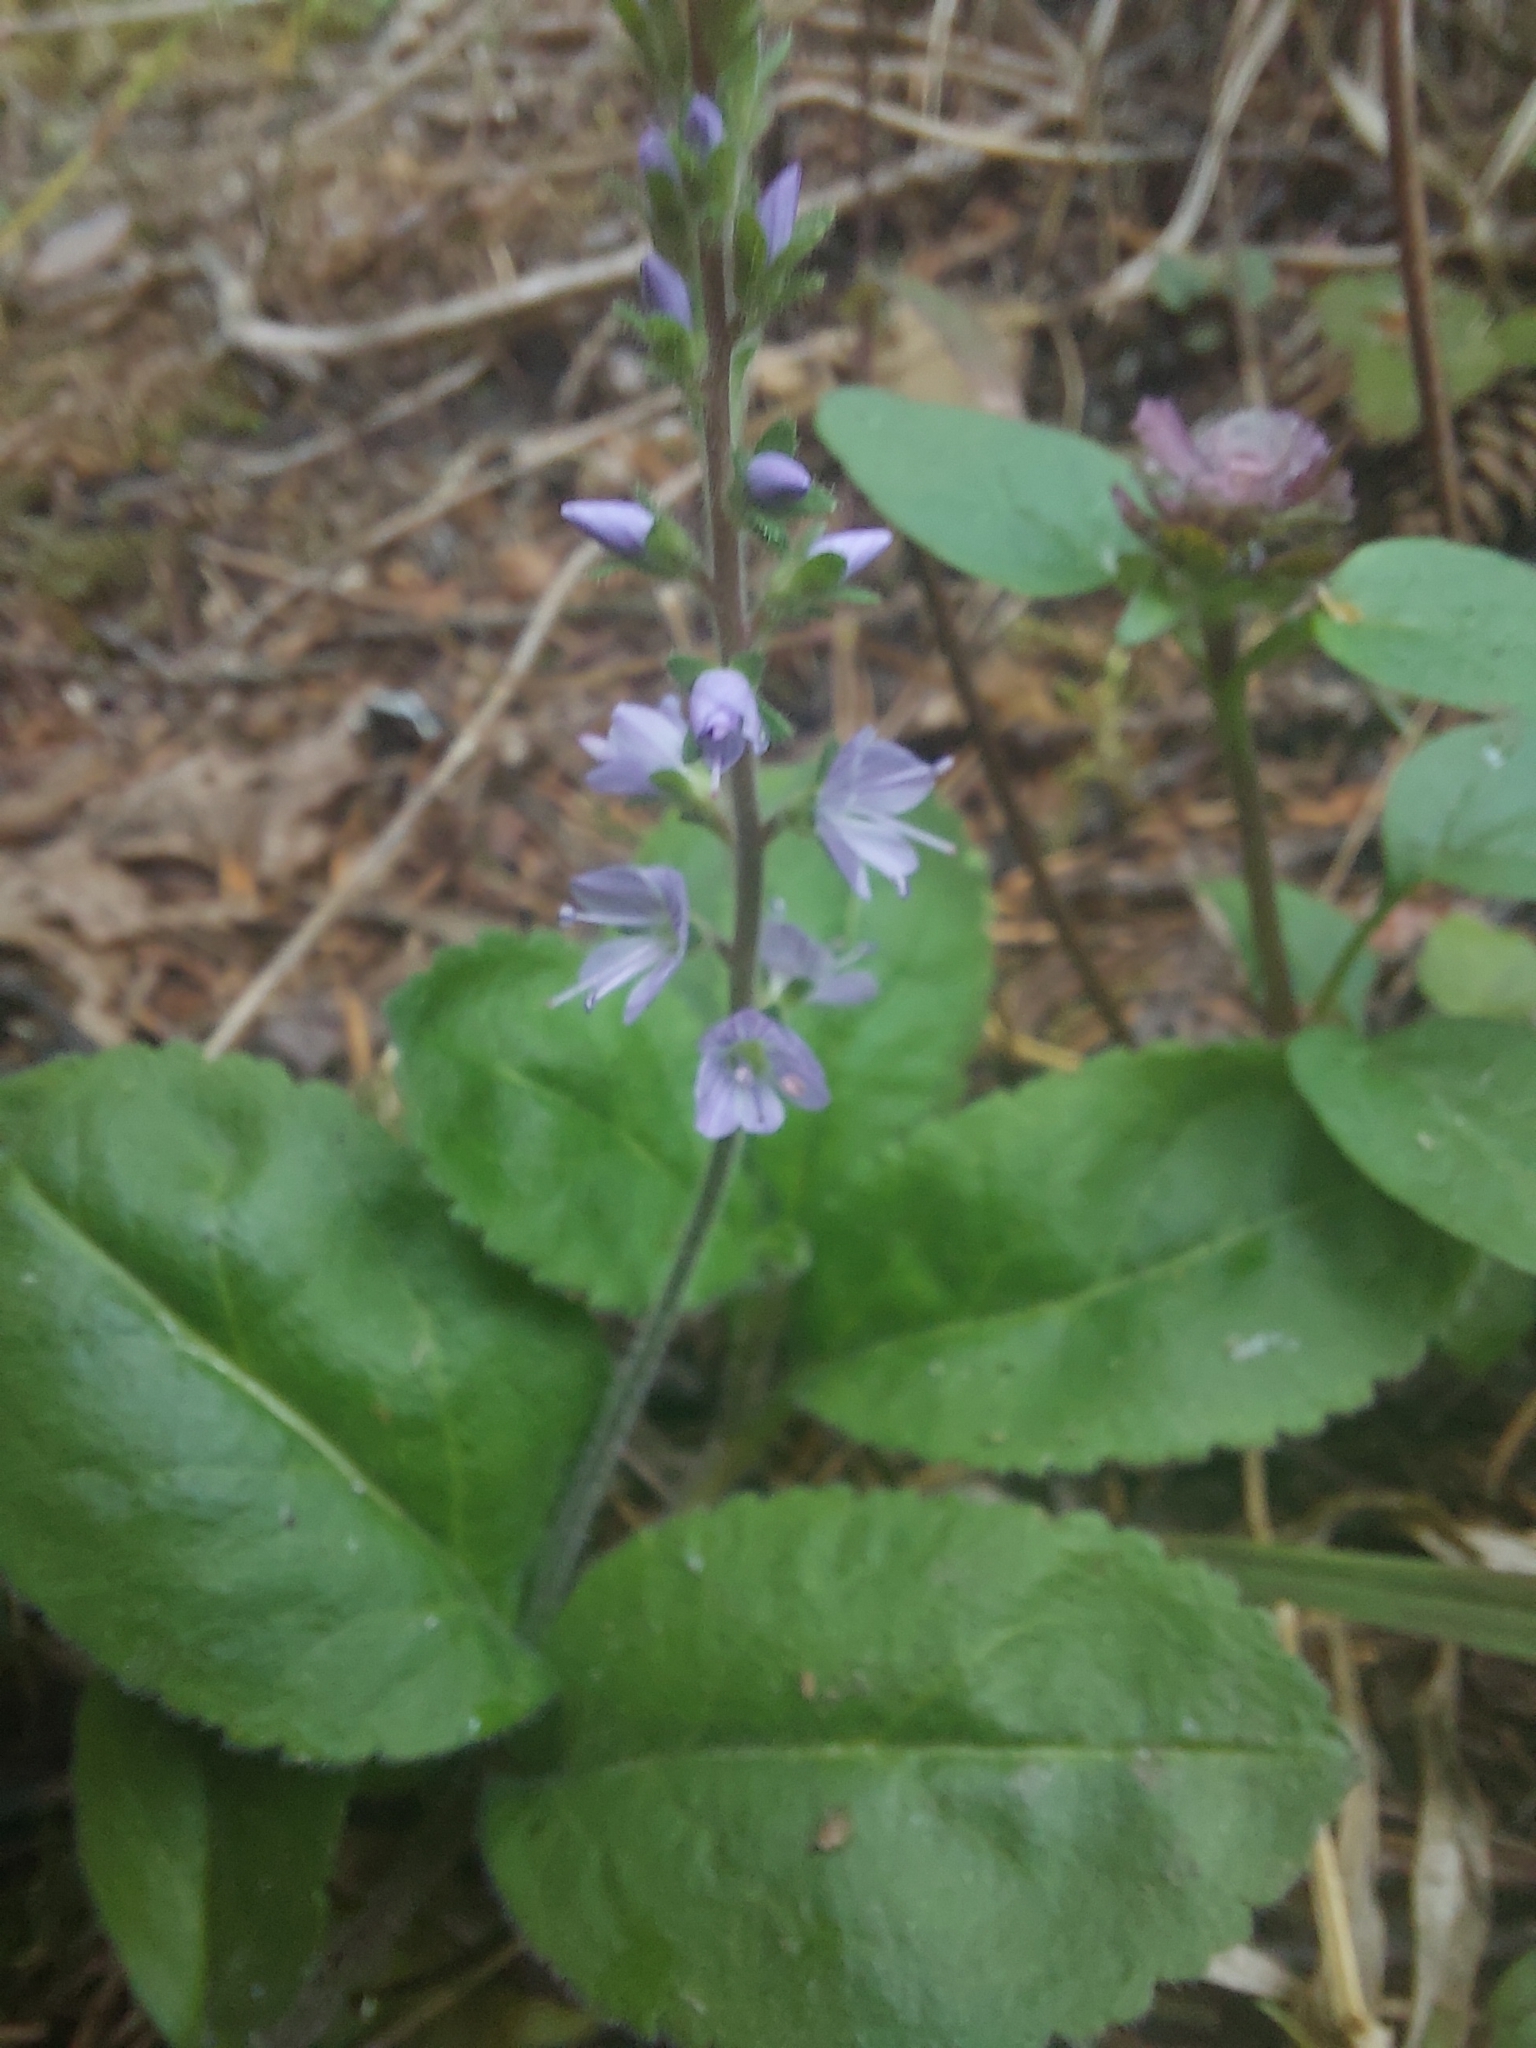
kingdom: Plantae
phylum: Tracheophyta
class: Magnoliopsida
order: Lamiales
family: Plantaginaceae
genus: Veronica
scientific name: Veronica officinalis
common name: Common speedwell
